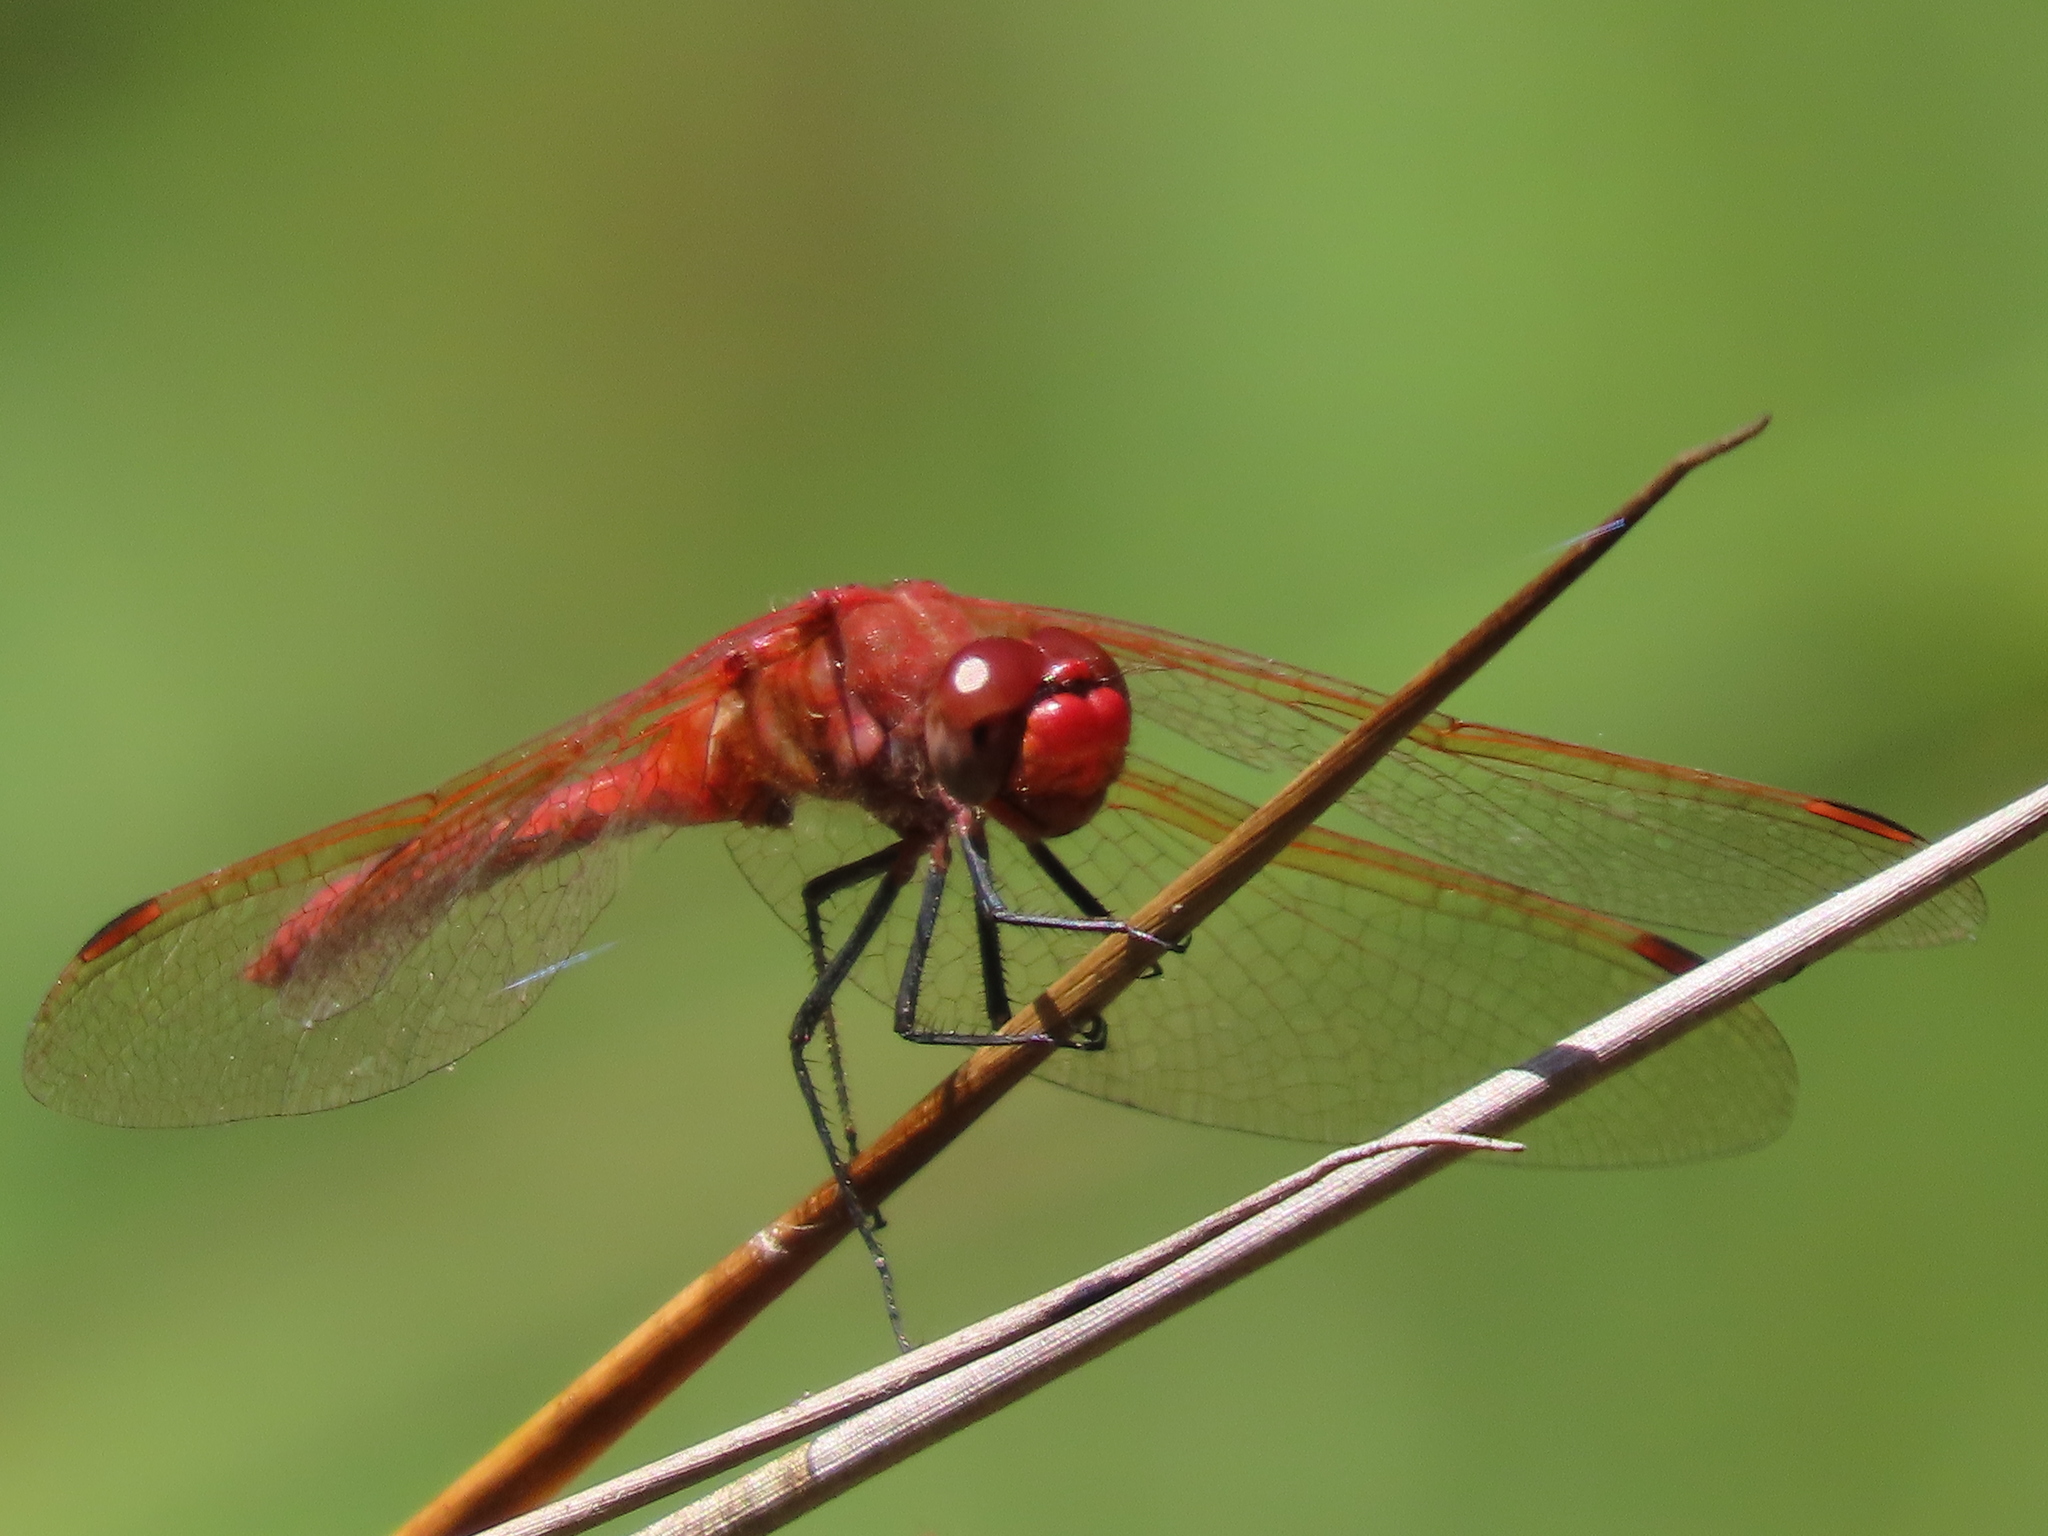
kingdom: Animalia
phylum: Arthropoda
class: Insecta
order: Odonata
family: Libellulidae
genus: Sympetrum
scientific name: Sympetrum madidum
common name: Red-veined meadowhawk
